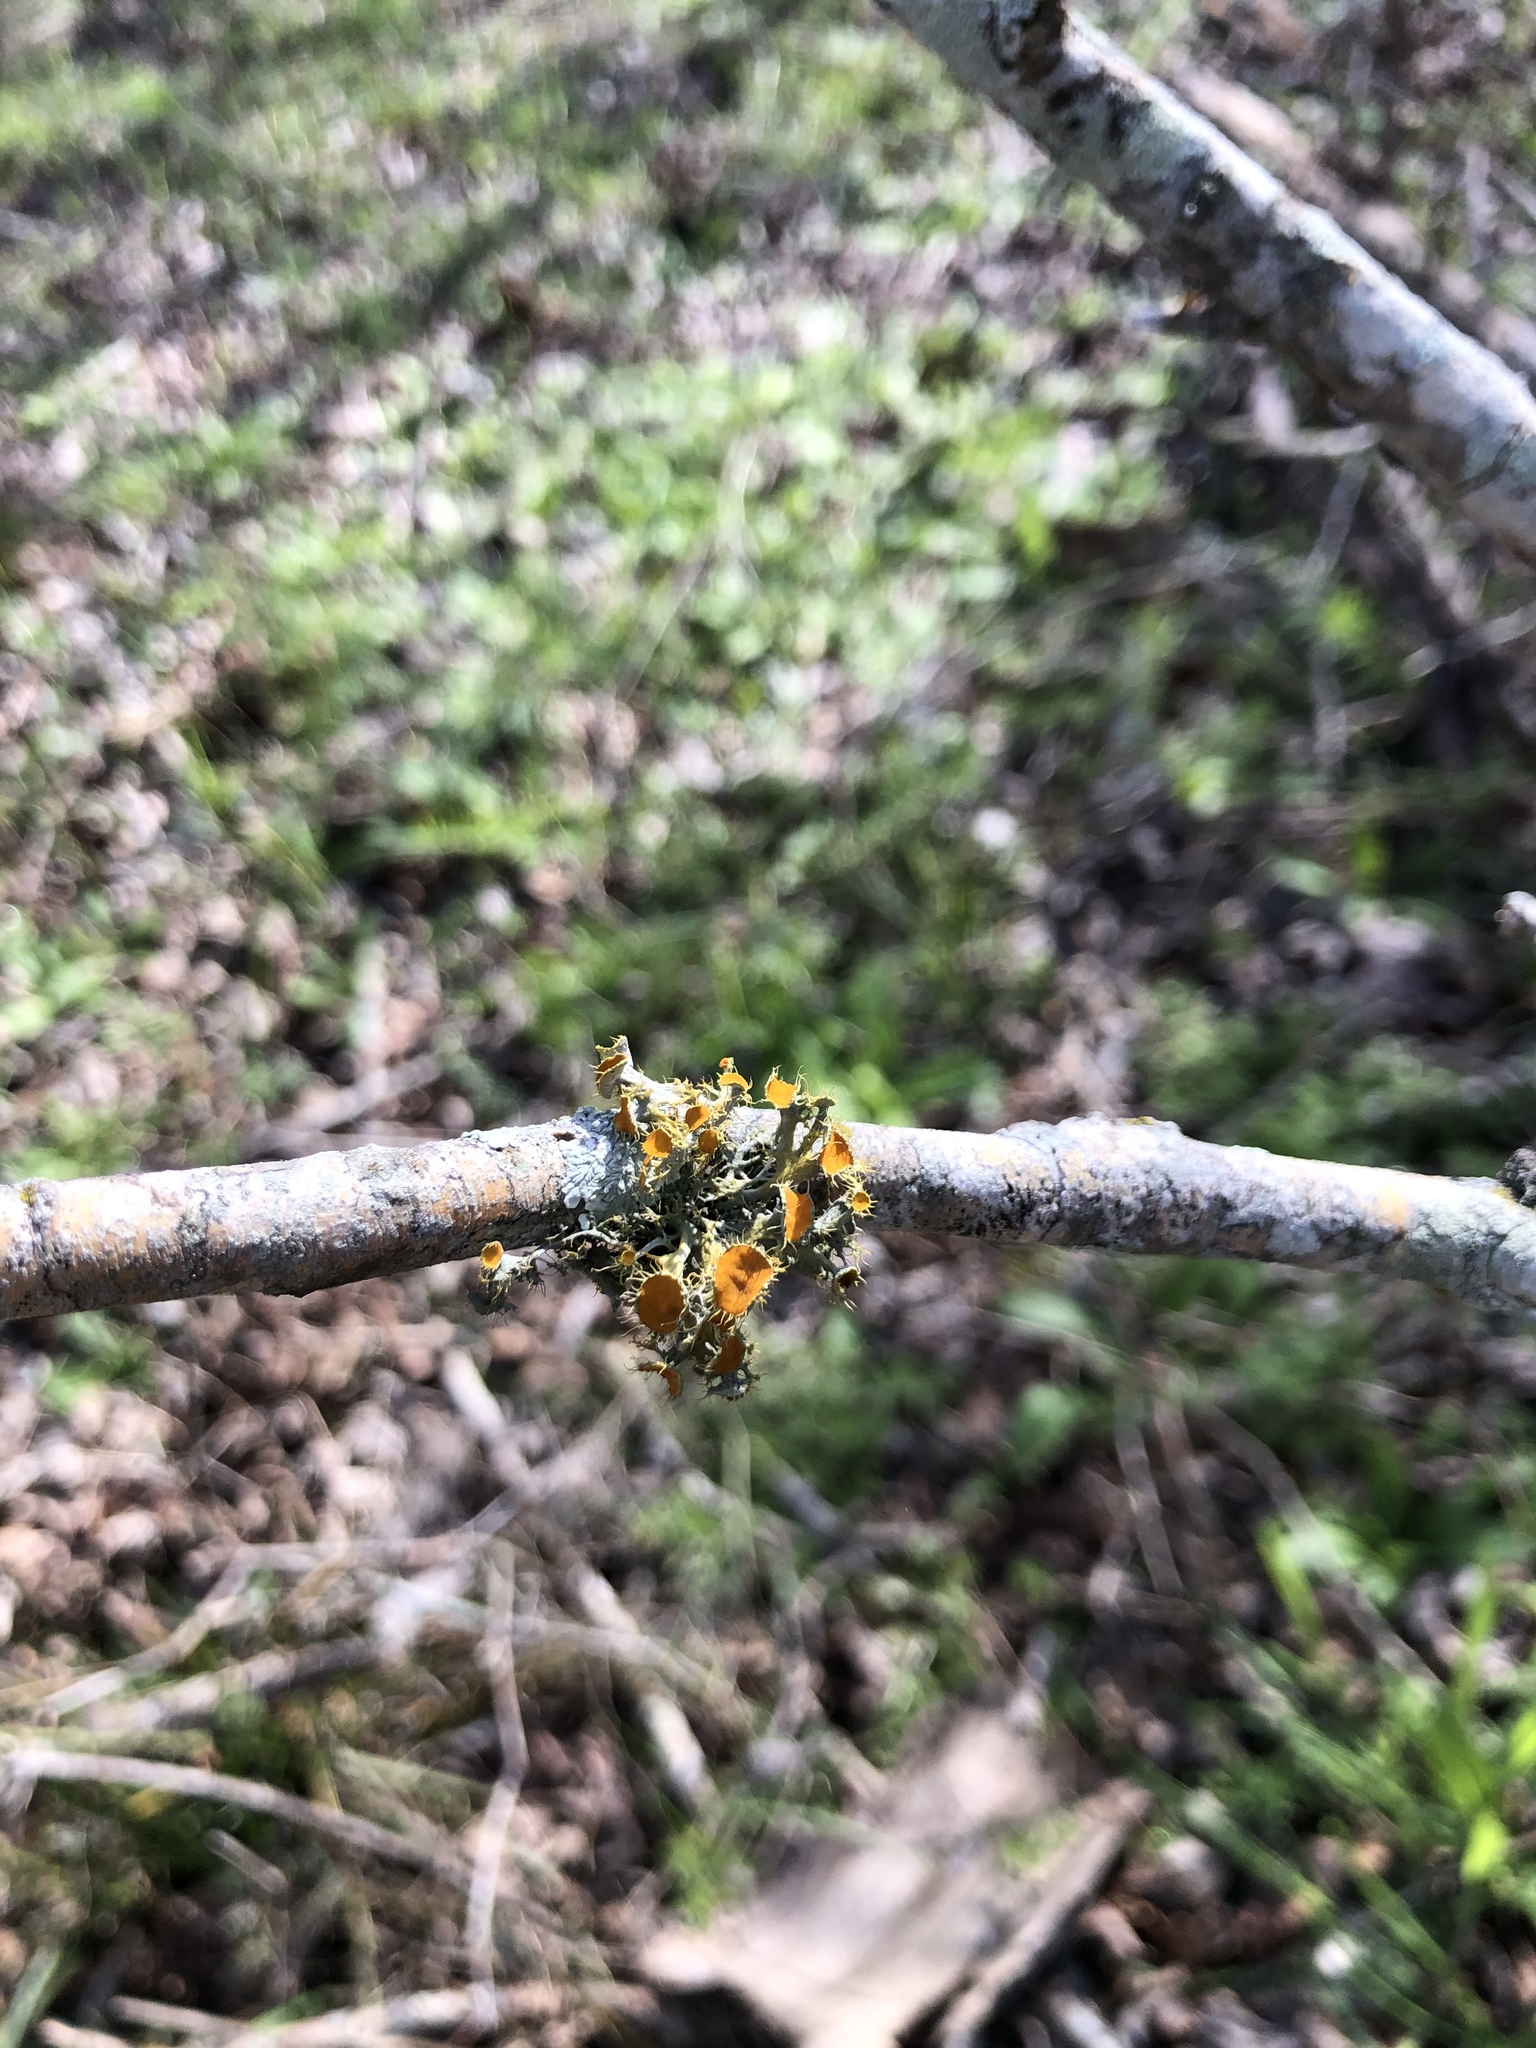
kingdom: Fungi
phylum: Ascomycota
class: Lecanoromycetes
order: Teloschistales
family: Teloschistaceae
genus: Niorma
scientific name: Niorma chrysophthalma
